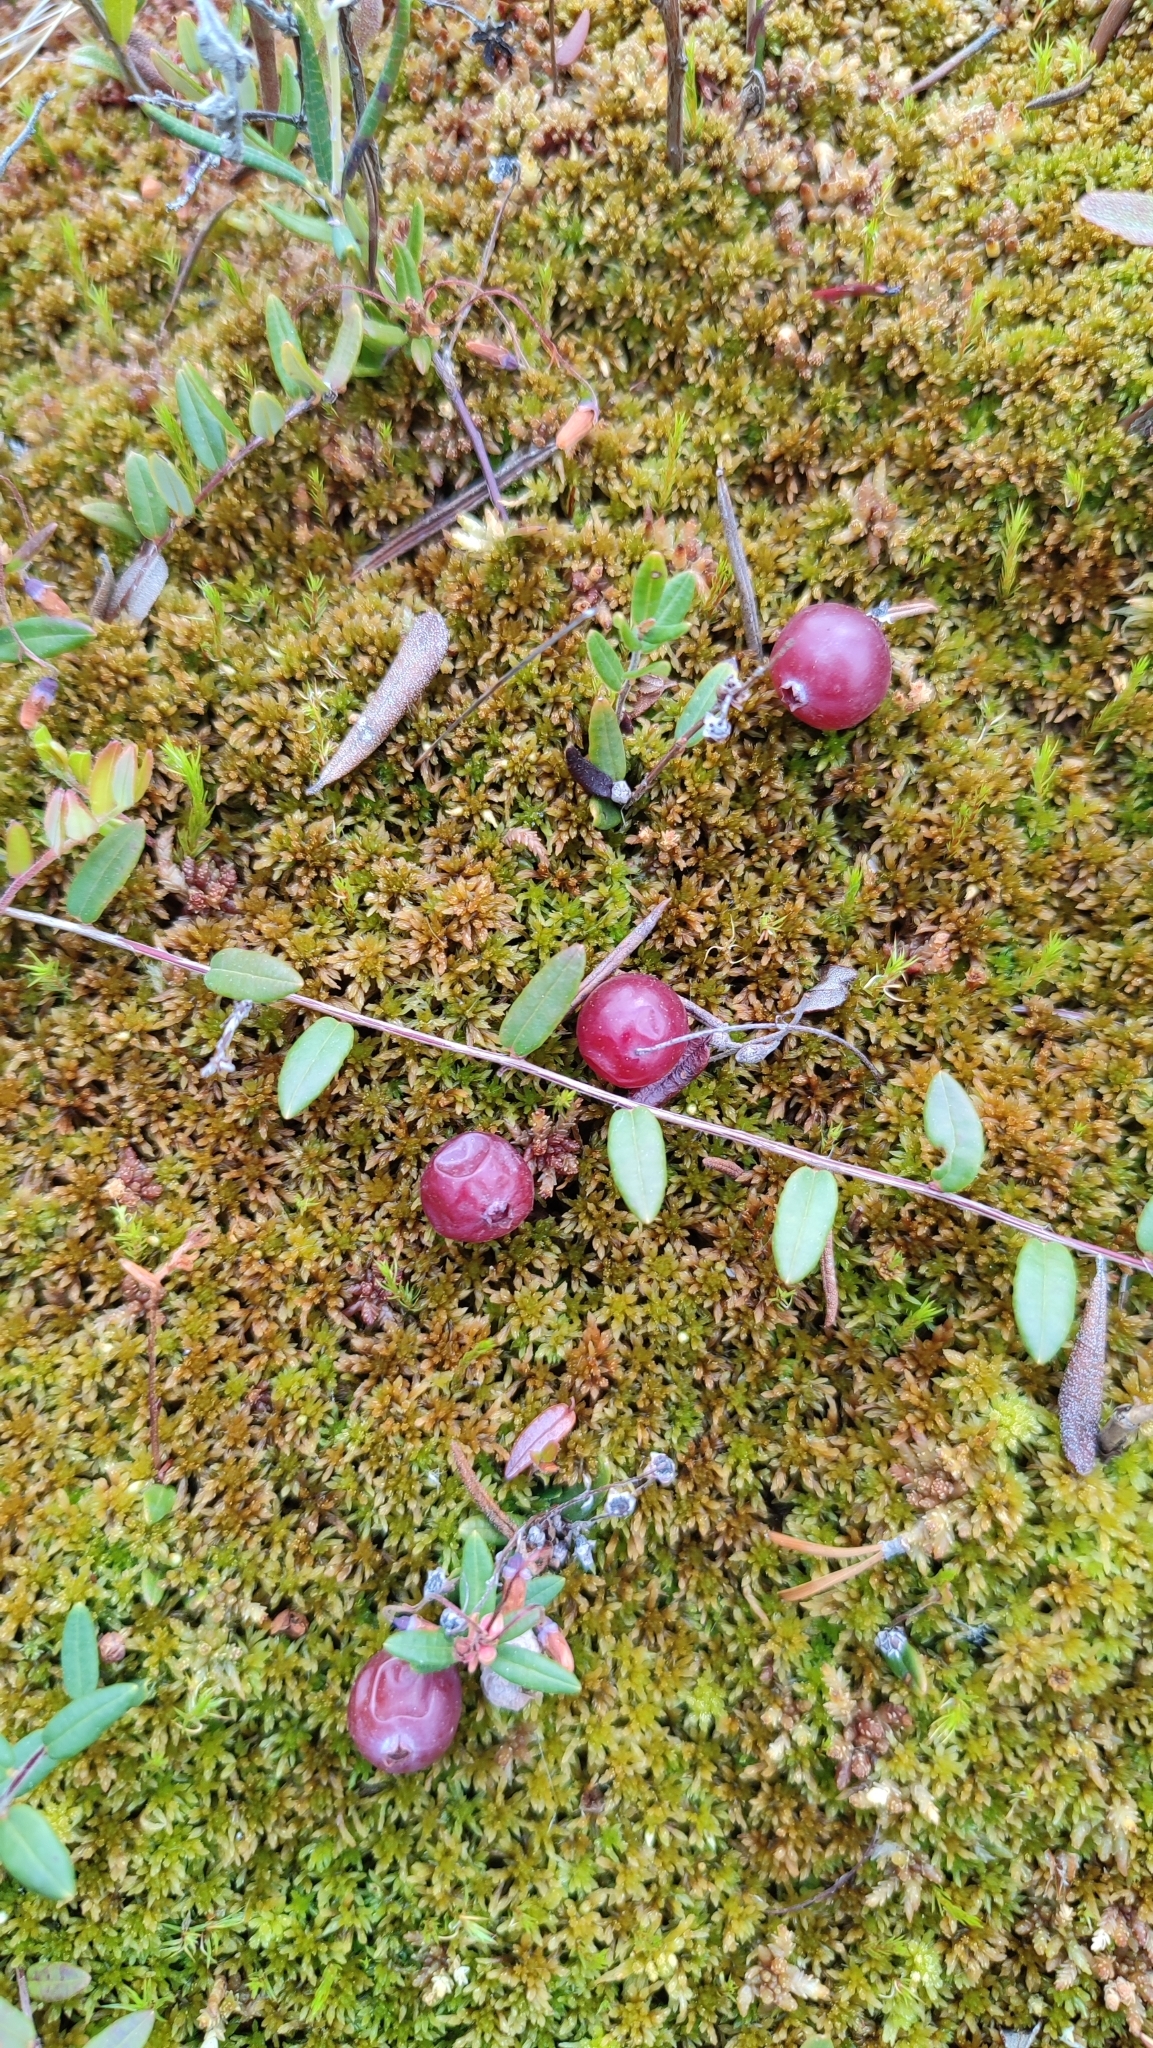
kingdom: Plantae
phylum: Tracheophyta
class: Magnoliopsida
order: Ericales
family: Ericaceae
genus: Vaccinium
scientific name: Vaccinium microcarpum
